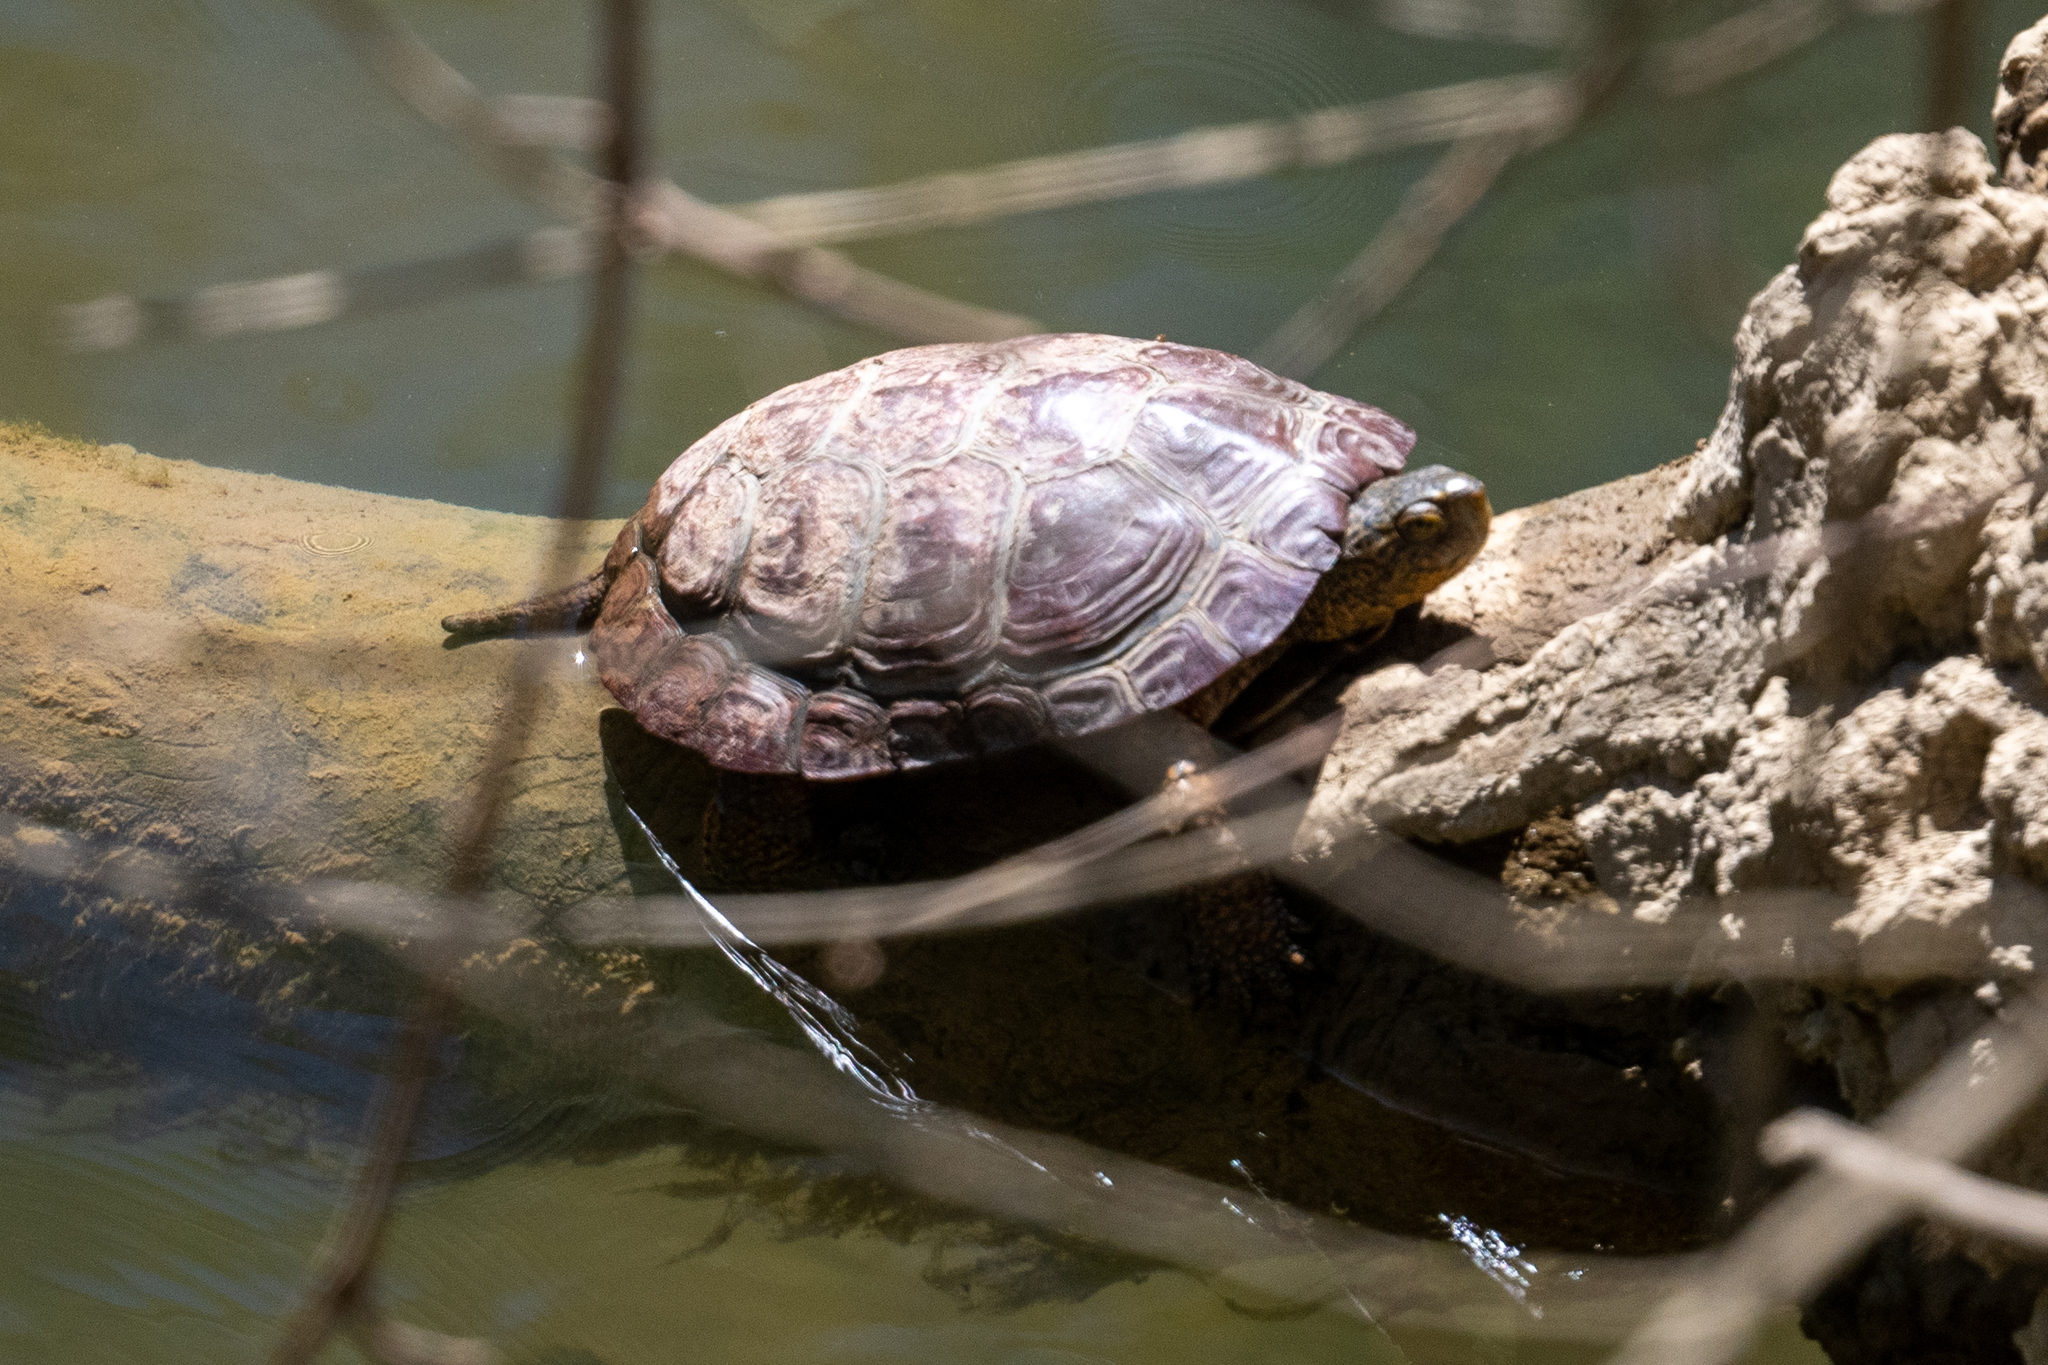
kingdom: Animalia
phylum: Chordata
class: Testudines
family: Emydidae
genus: Actinemys
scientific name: Actinemys marmorata
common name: Western pond turtle
